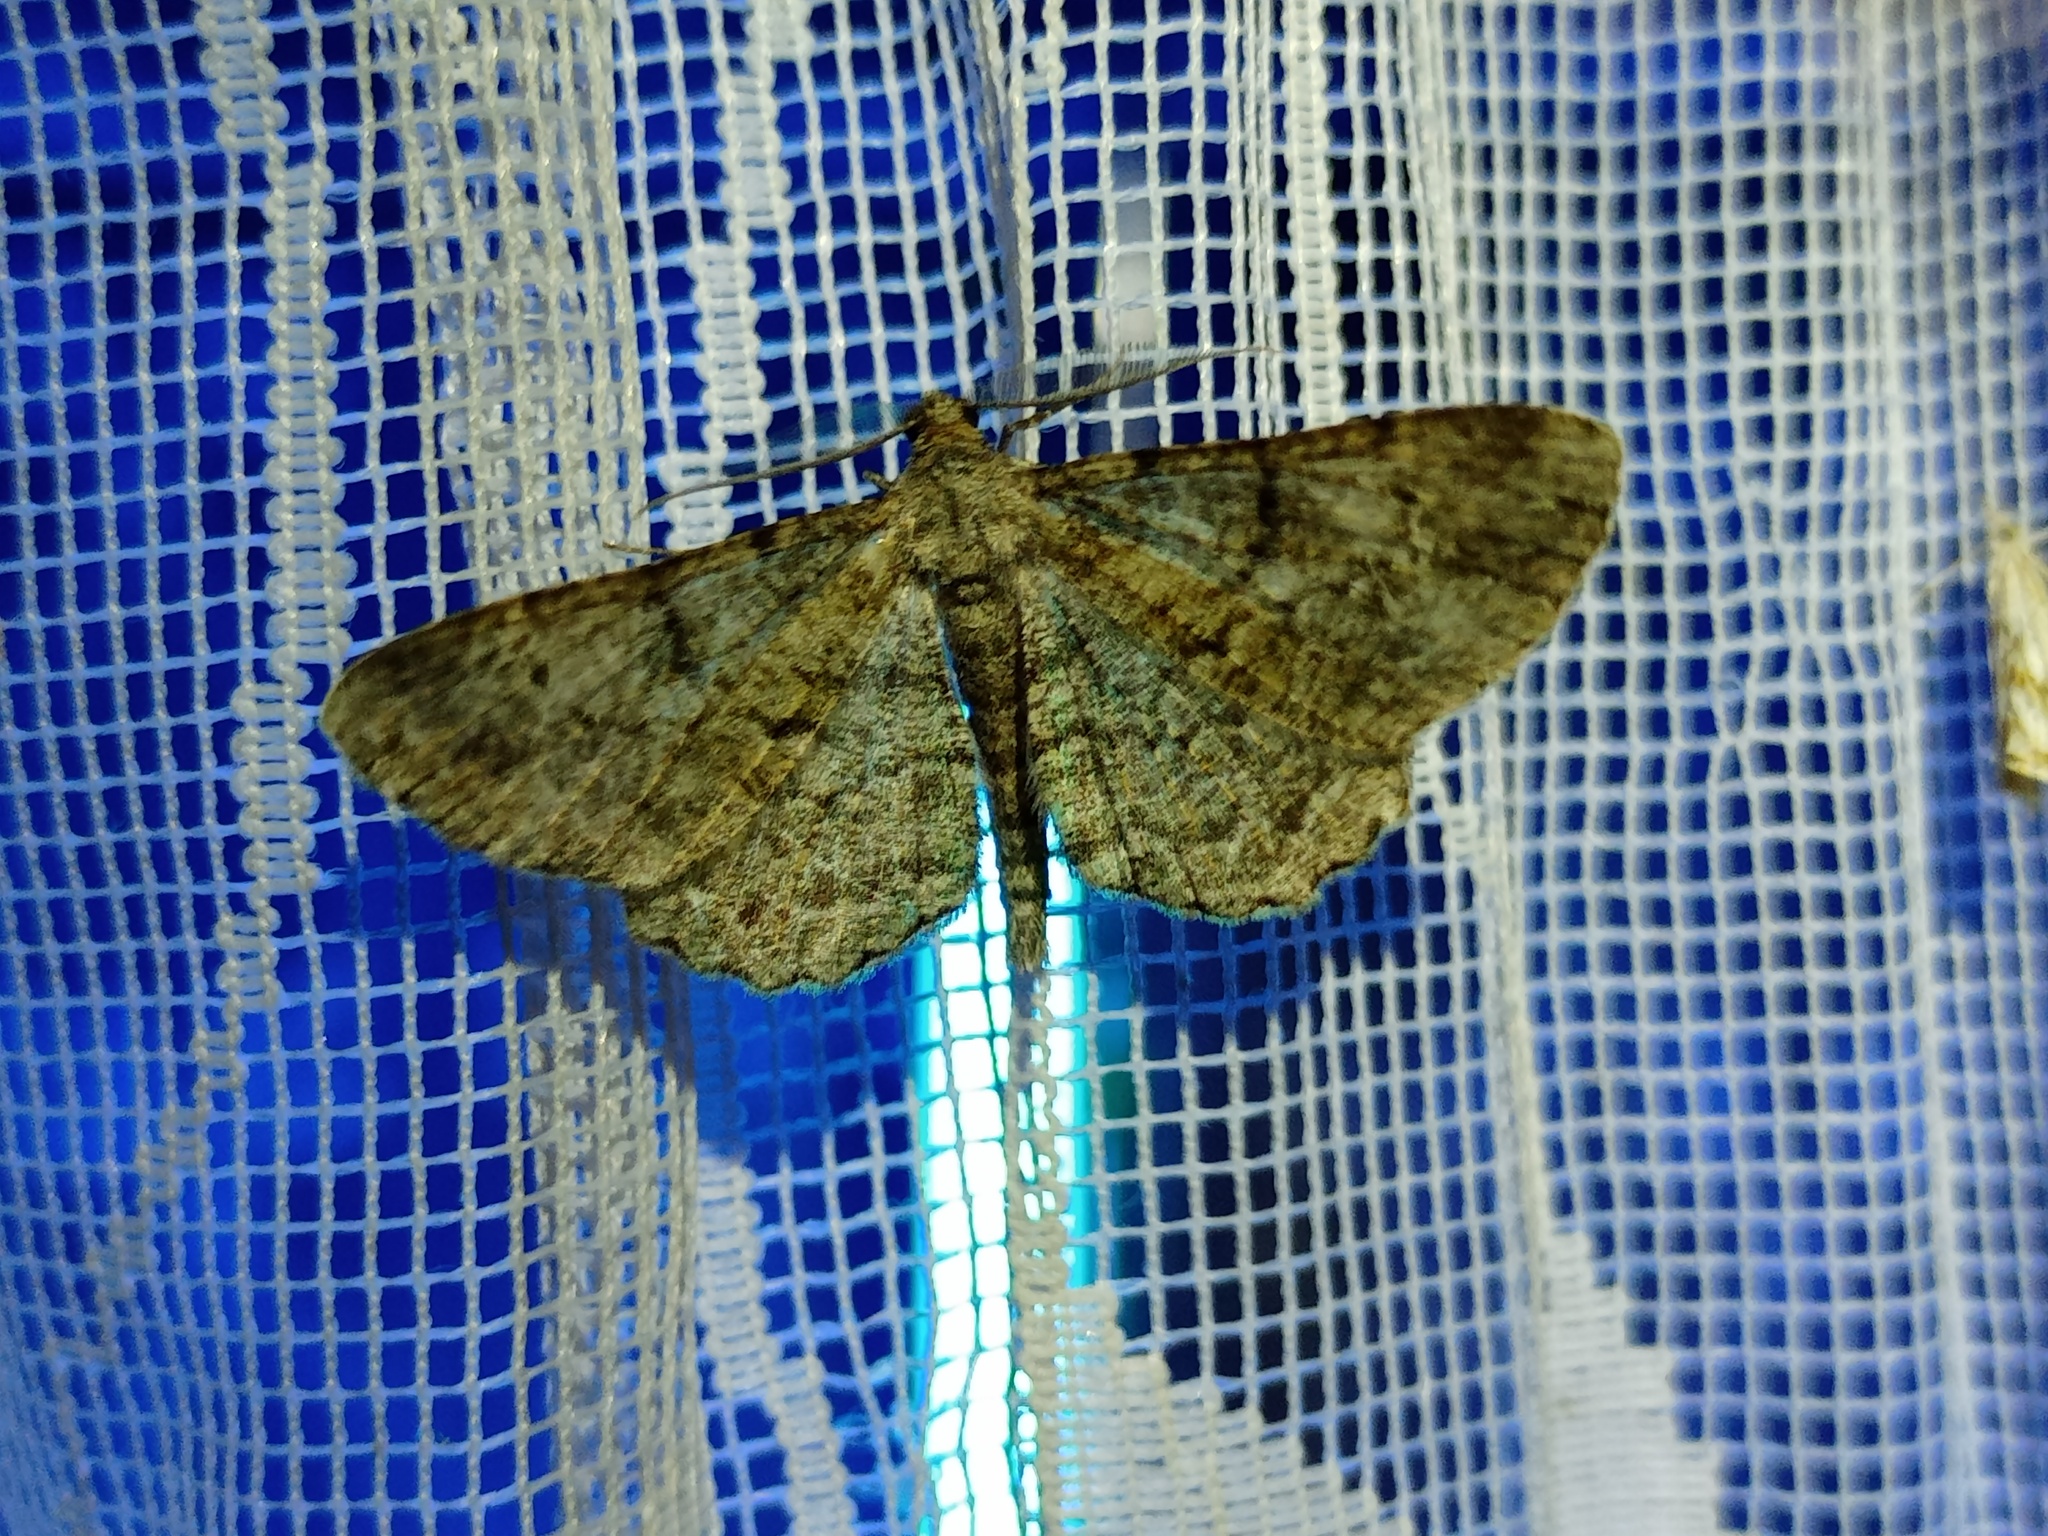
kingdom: Animalia
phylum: Arthropoda
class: Insecta
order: Lepidoptera
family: Geometridae
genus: Peribatodes
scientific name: Peribatodes rhomboidaria
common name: Willow beauty
